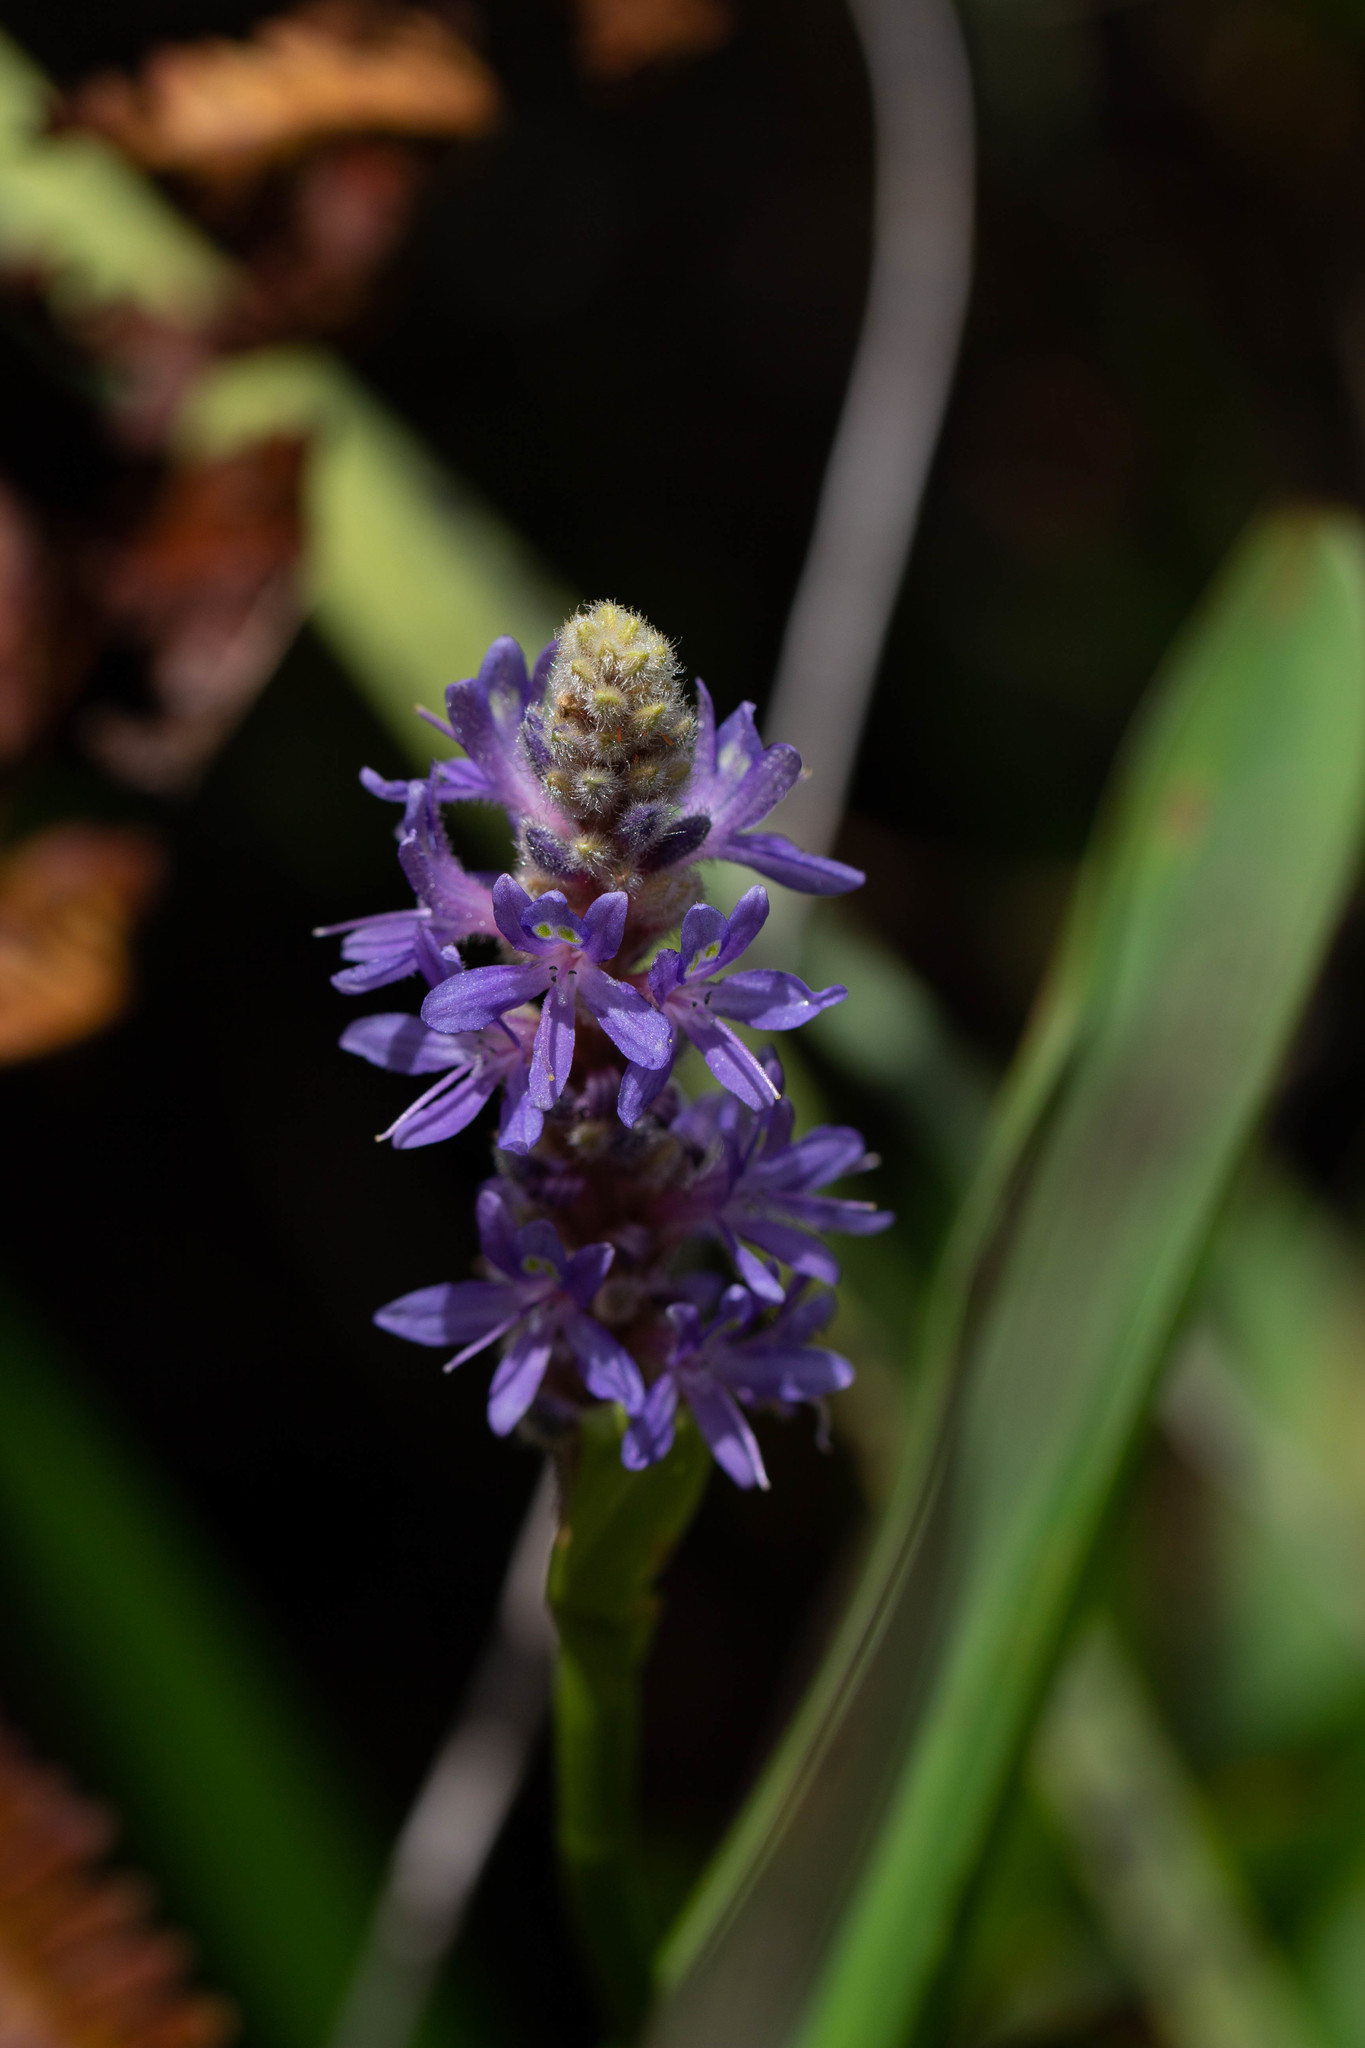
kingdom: Plantae
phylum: Tracheophyta
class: Liliopsida
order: Commelinales
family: Pontederiaceae
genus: Pontederia
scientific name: Pontederia cordata
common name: Pickerelweed
